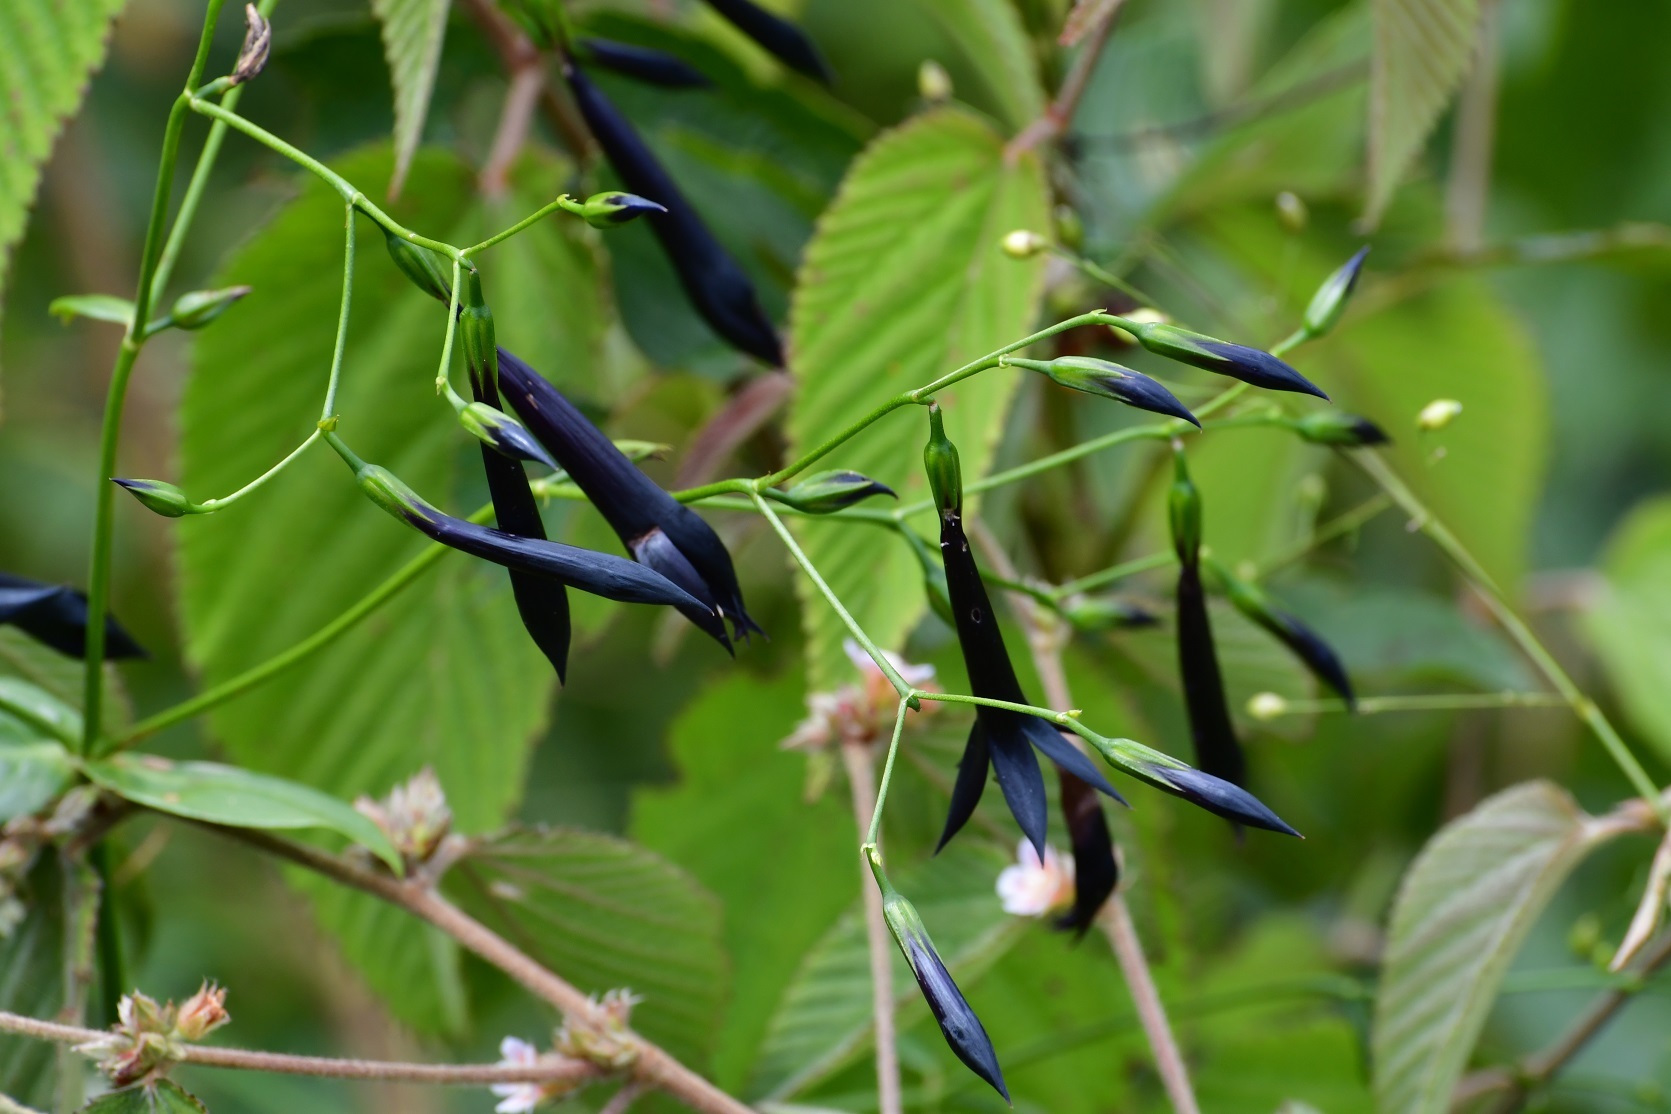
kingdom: Plantae
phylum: Tracheophyta
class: Magnoliopsida
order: Gentianales
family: Gentianaceae
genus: Lisianthus
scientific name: Lisianthus nigrescens
